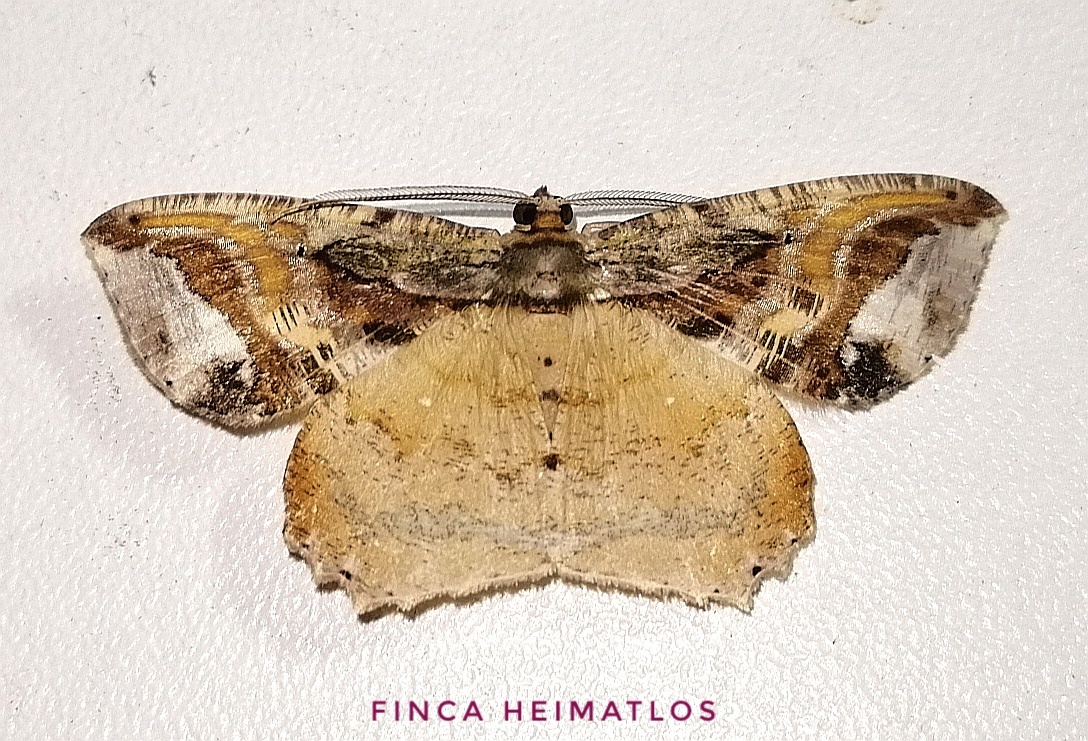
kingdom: Animalia
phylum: Arthropoda
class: Insecta
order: Lepidoptera
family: Geometridae
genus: Thysanopyga
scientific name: Thysanopyga
